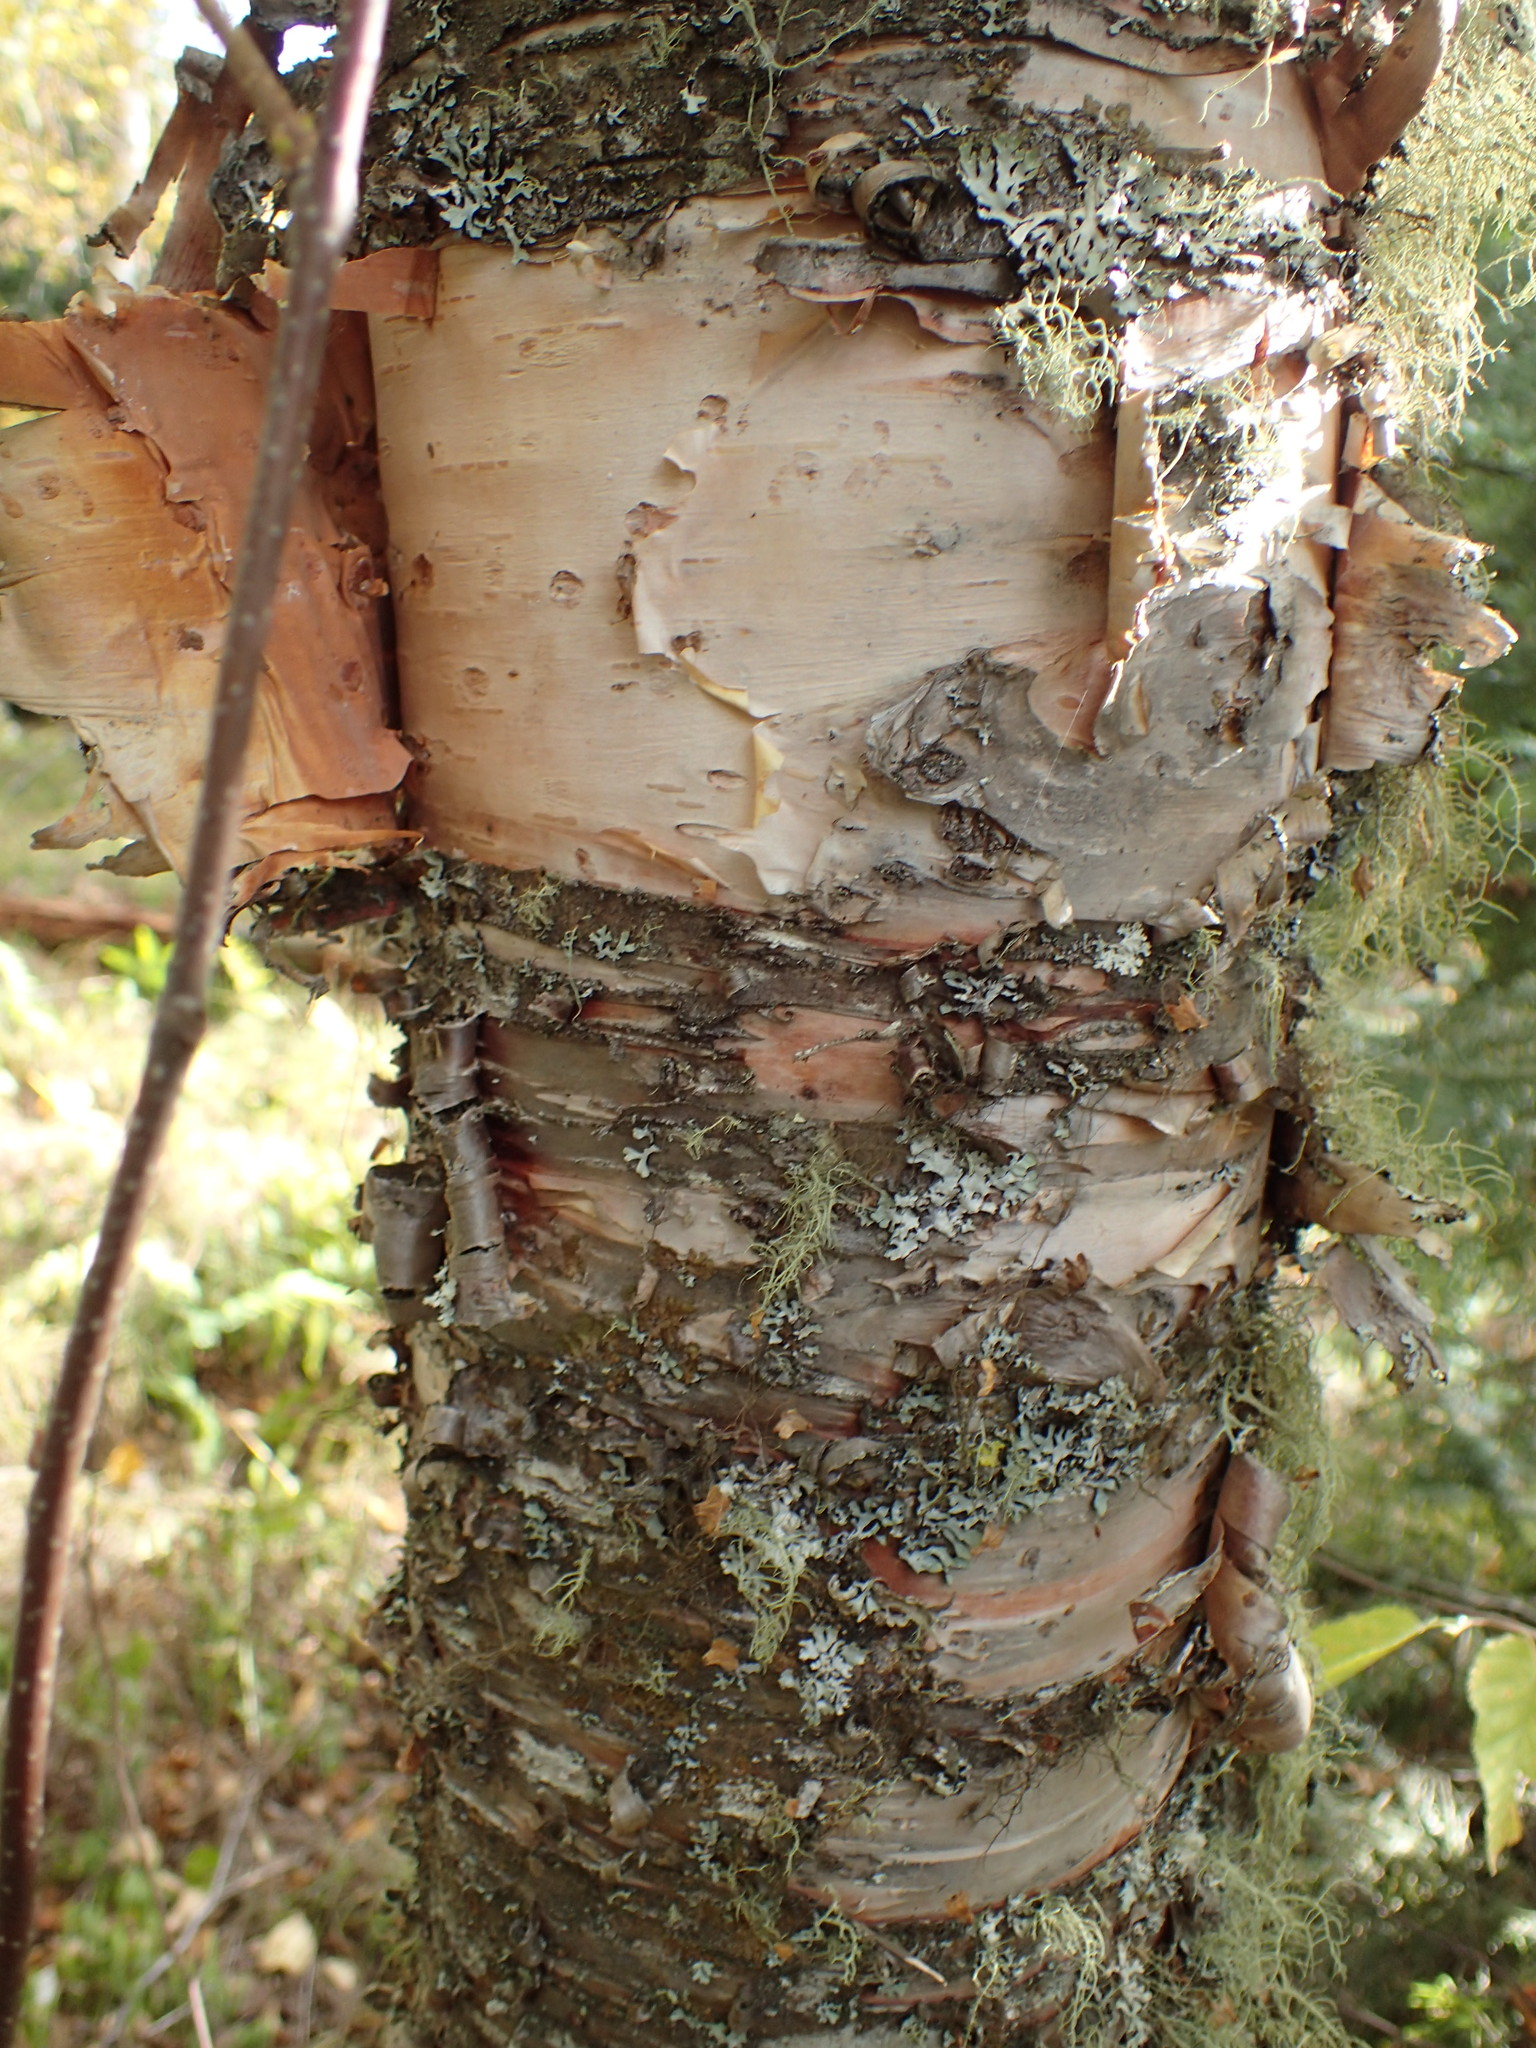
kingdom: Plantae
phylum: Tracheophyta
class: Magnoliopsida
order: Fagales
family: Betulaceae
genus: Betula
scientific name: Betula cordifolia
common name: Mountain white birch
